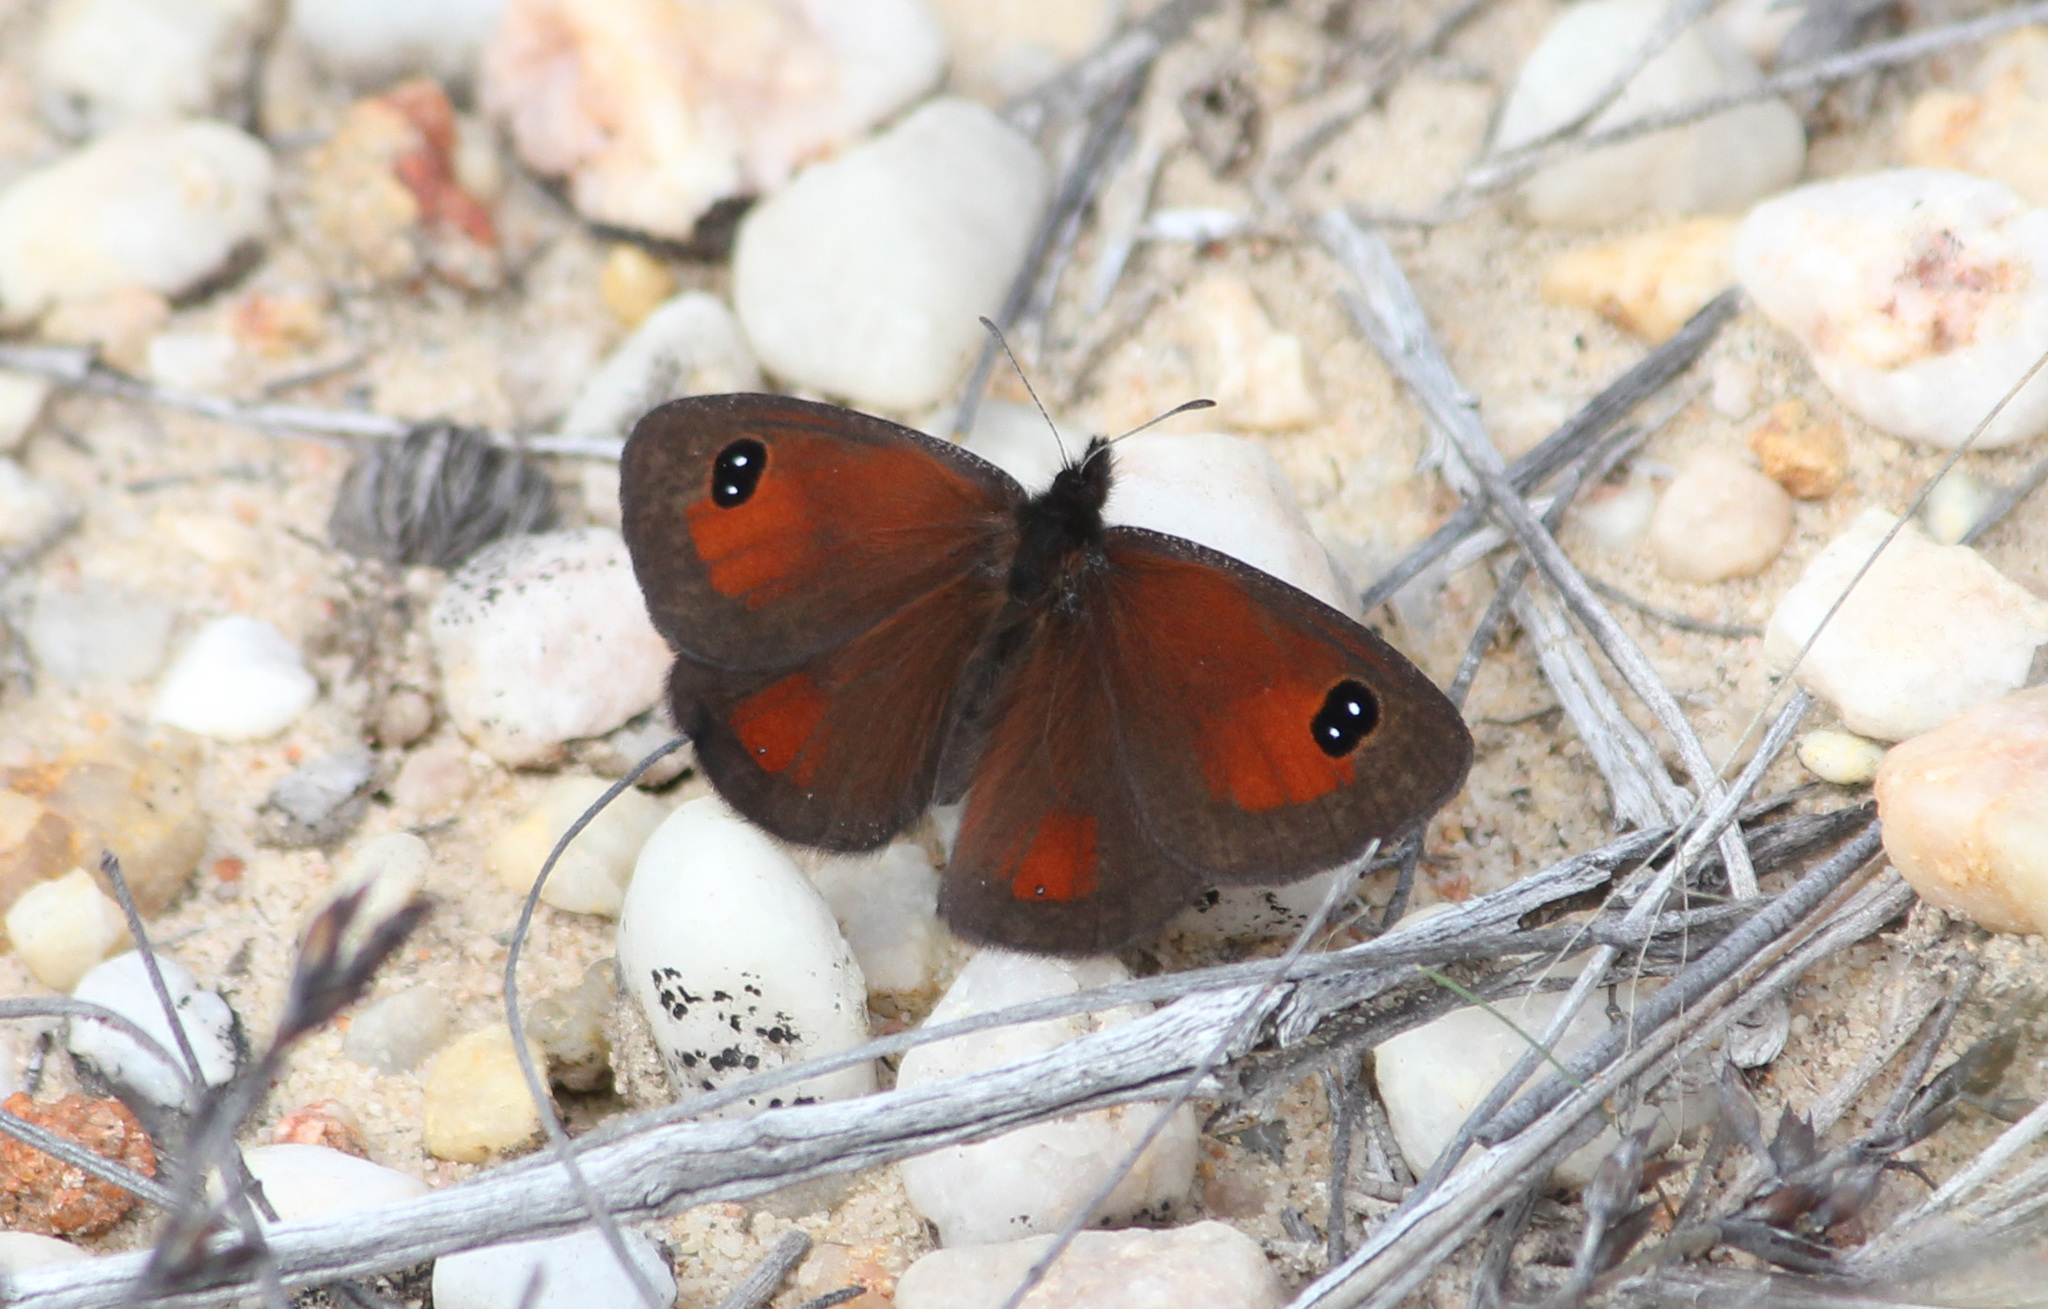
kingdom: Animalia
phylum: Arthropoda
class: Insecta
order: Lepidoptera
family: Nymphalidae
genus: Erebia
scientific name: Erebia
